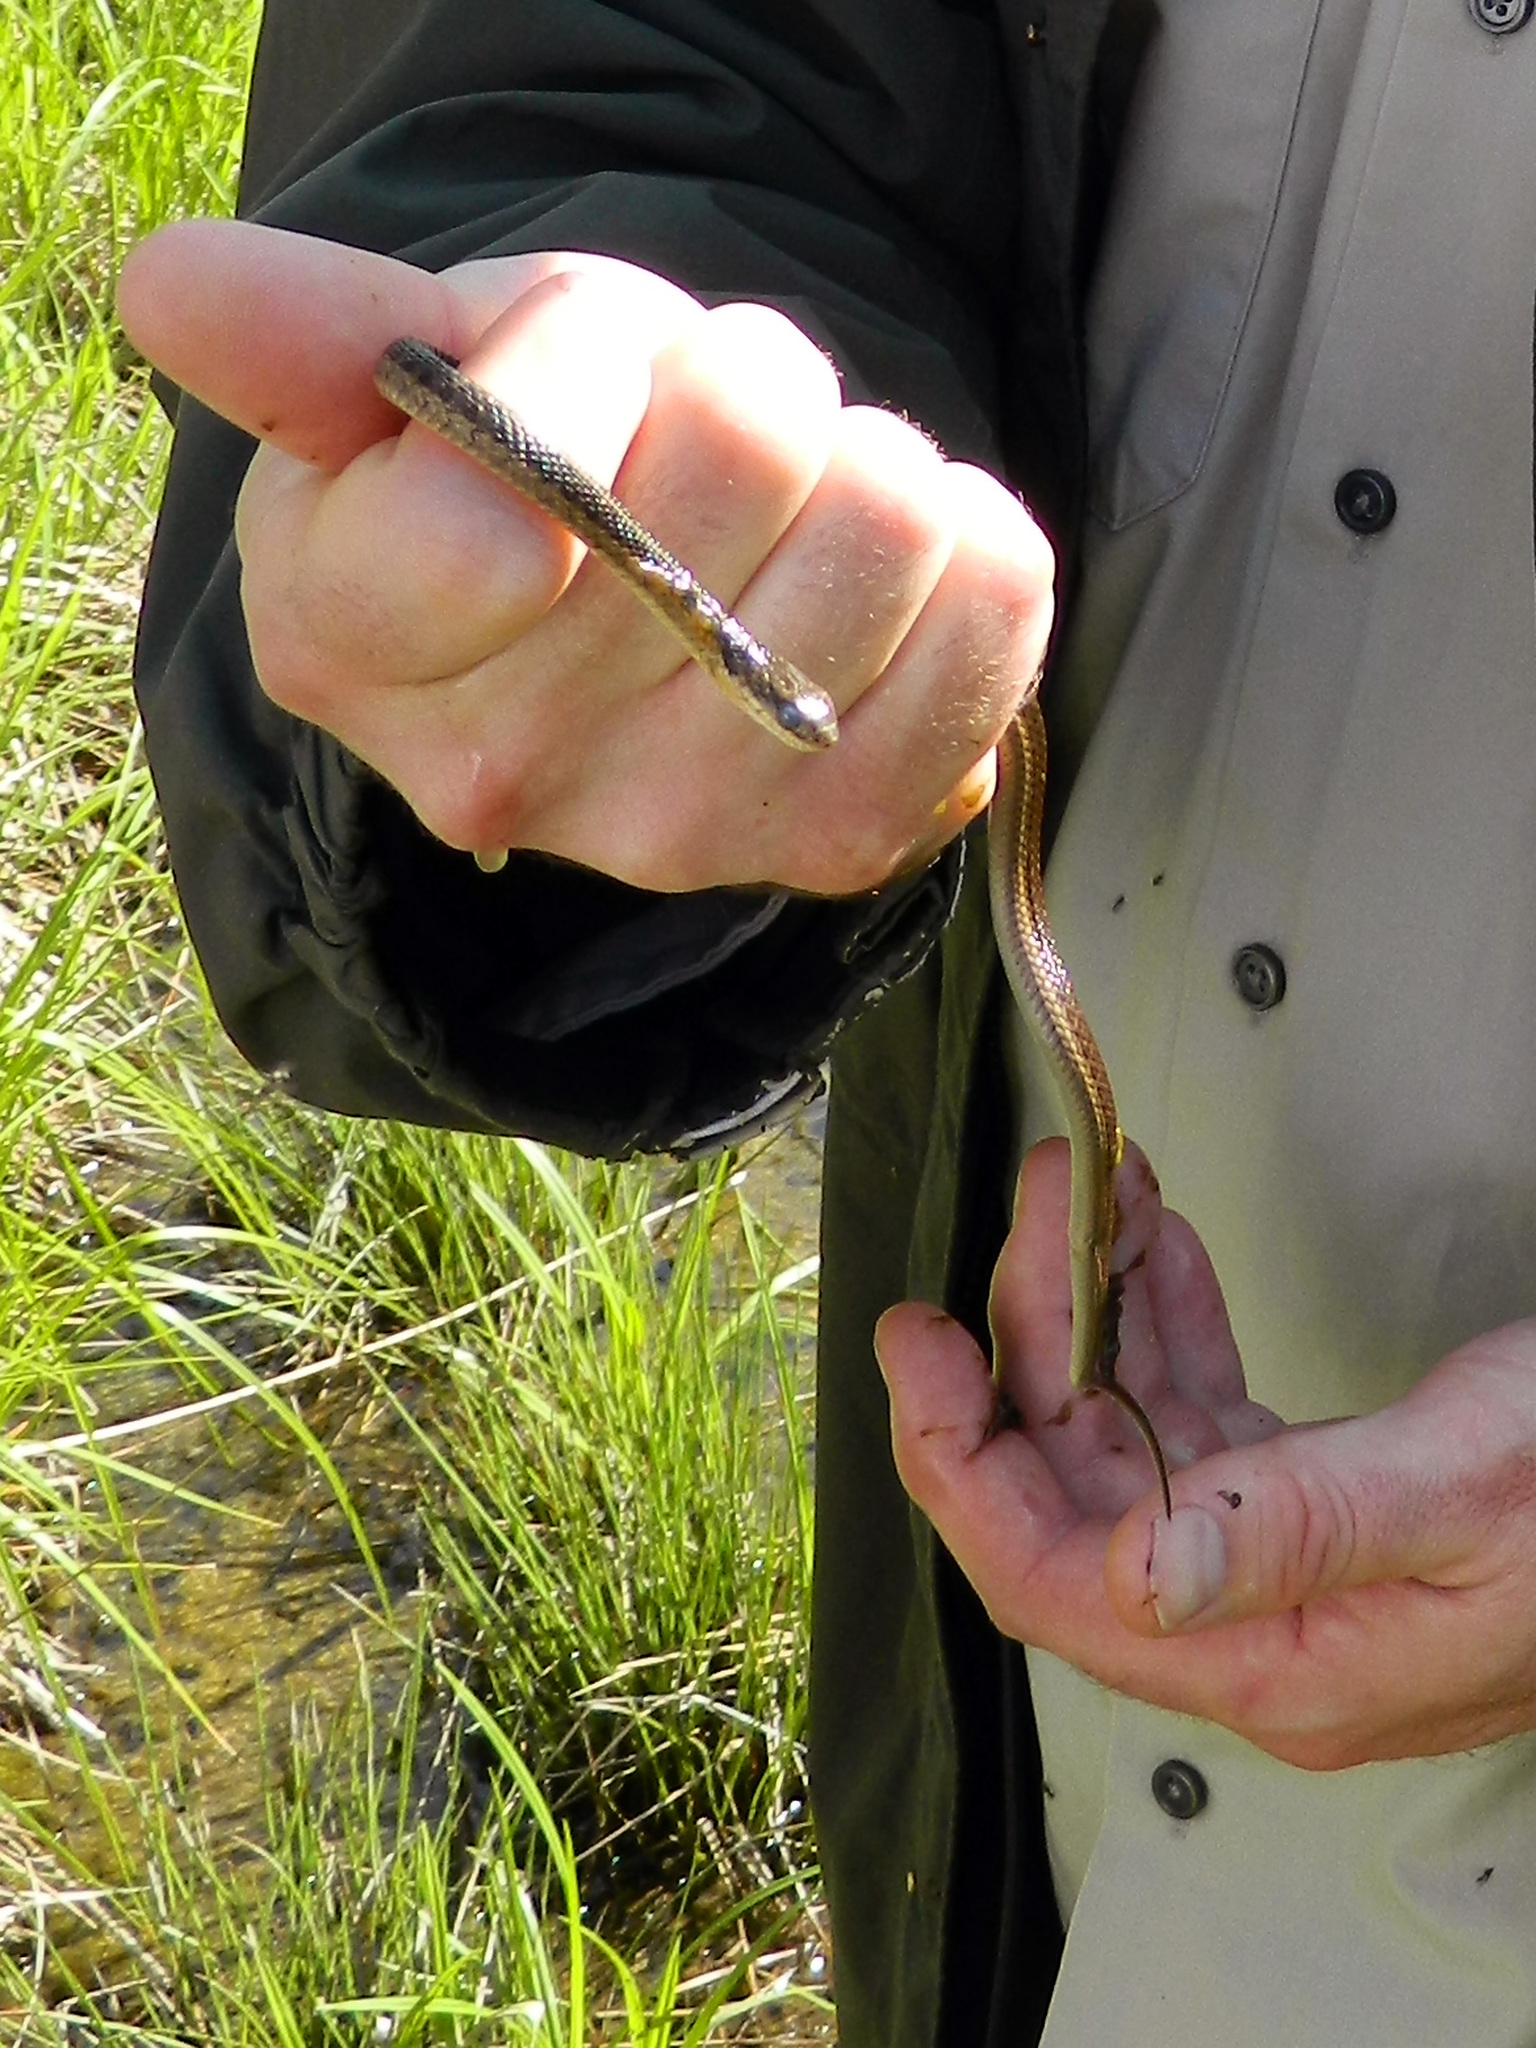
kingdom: Animalia
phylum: Chordata
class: Squamata
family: Colubridae
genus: Thamnophis
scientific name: Thamnophis sirtalis
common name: Common garter snake
